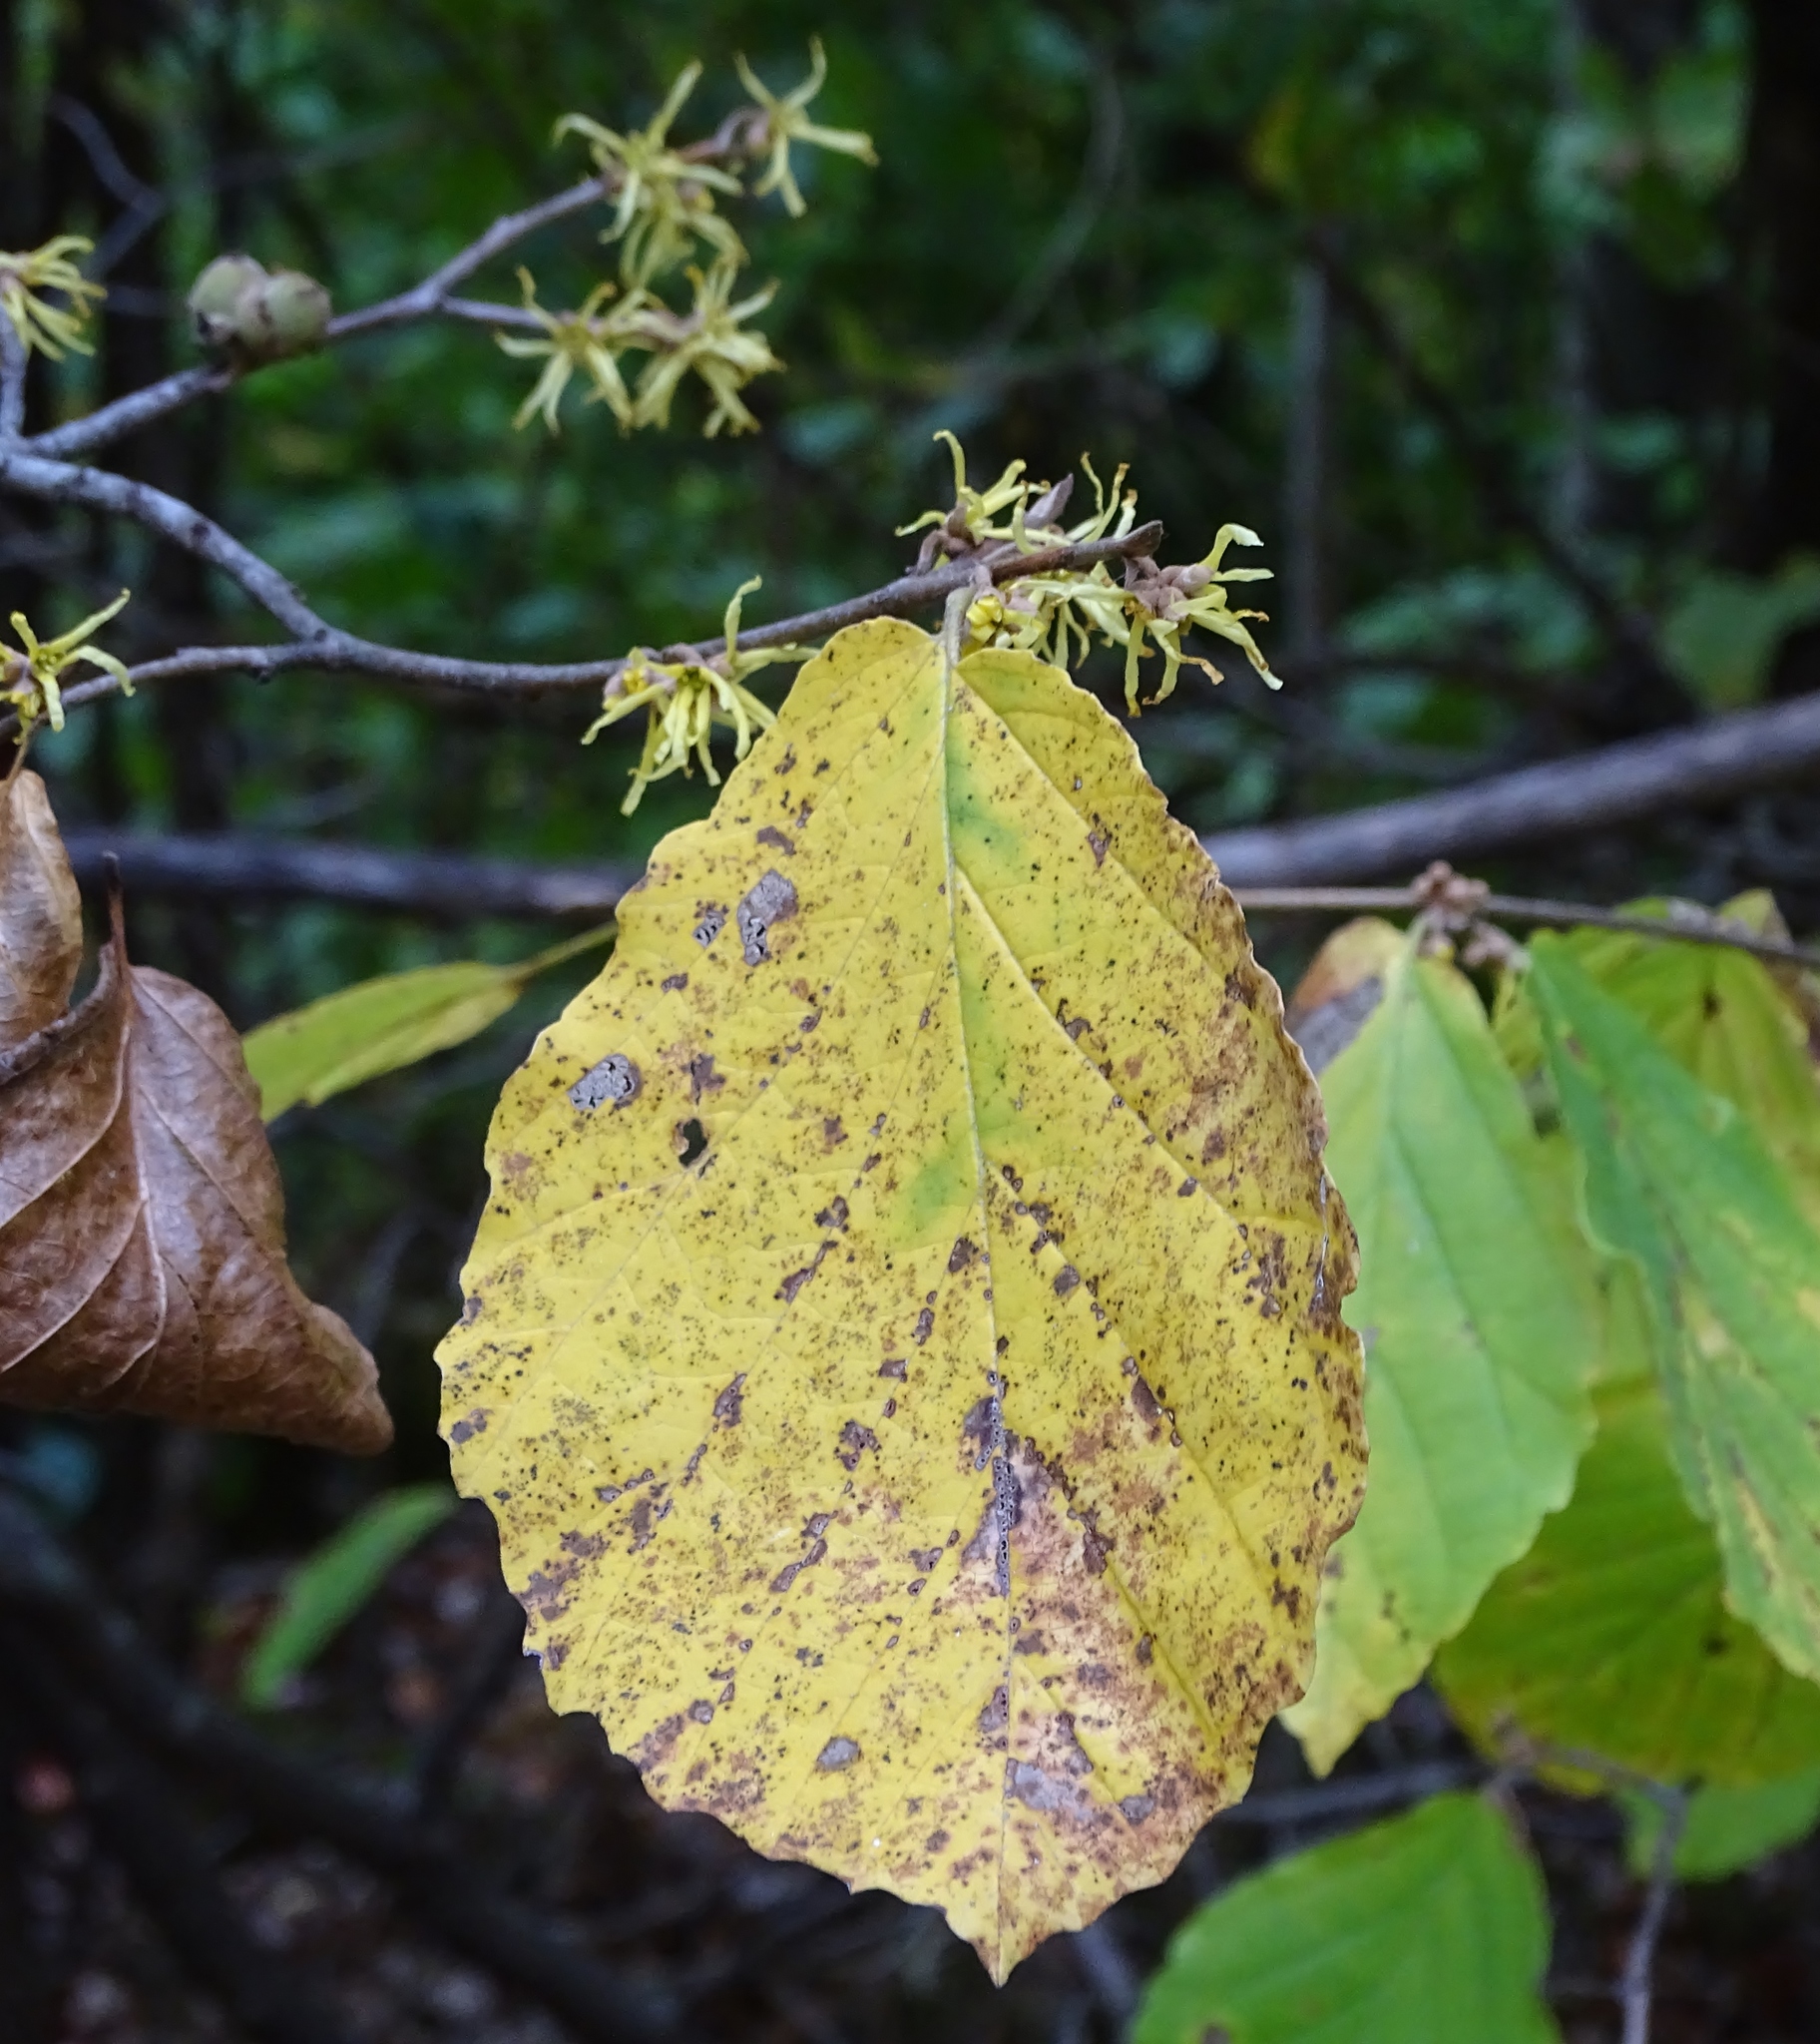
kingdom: Plantae
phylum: Tracheophyta
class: Magnoliopsida
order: Saxifragales
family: Hamamelidaceae
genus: Hamamelis
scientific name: Hamamelis virginiana
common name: Witch-hazel
